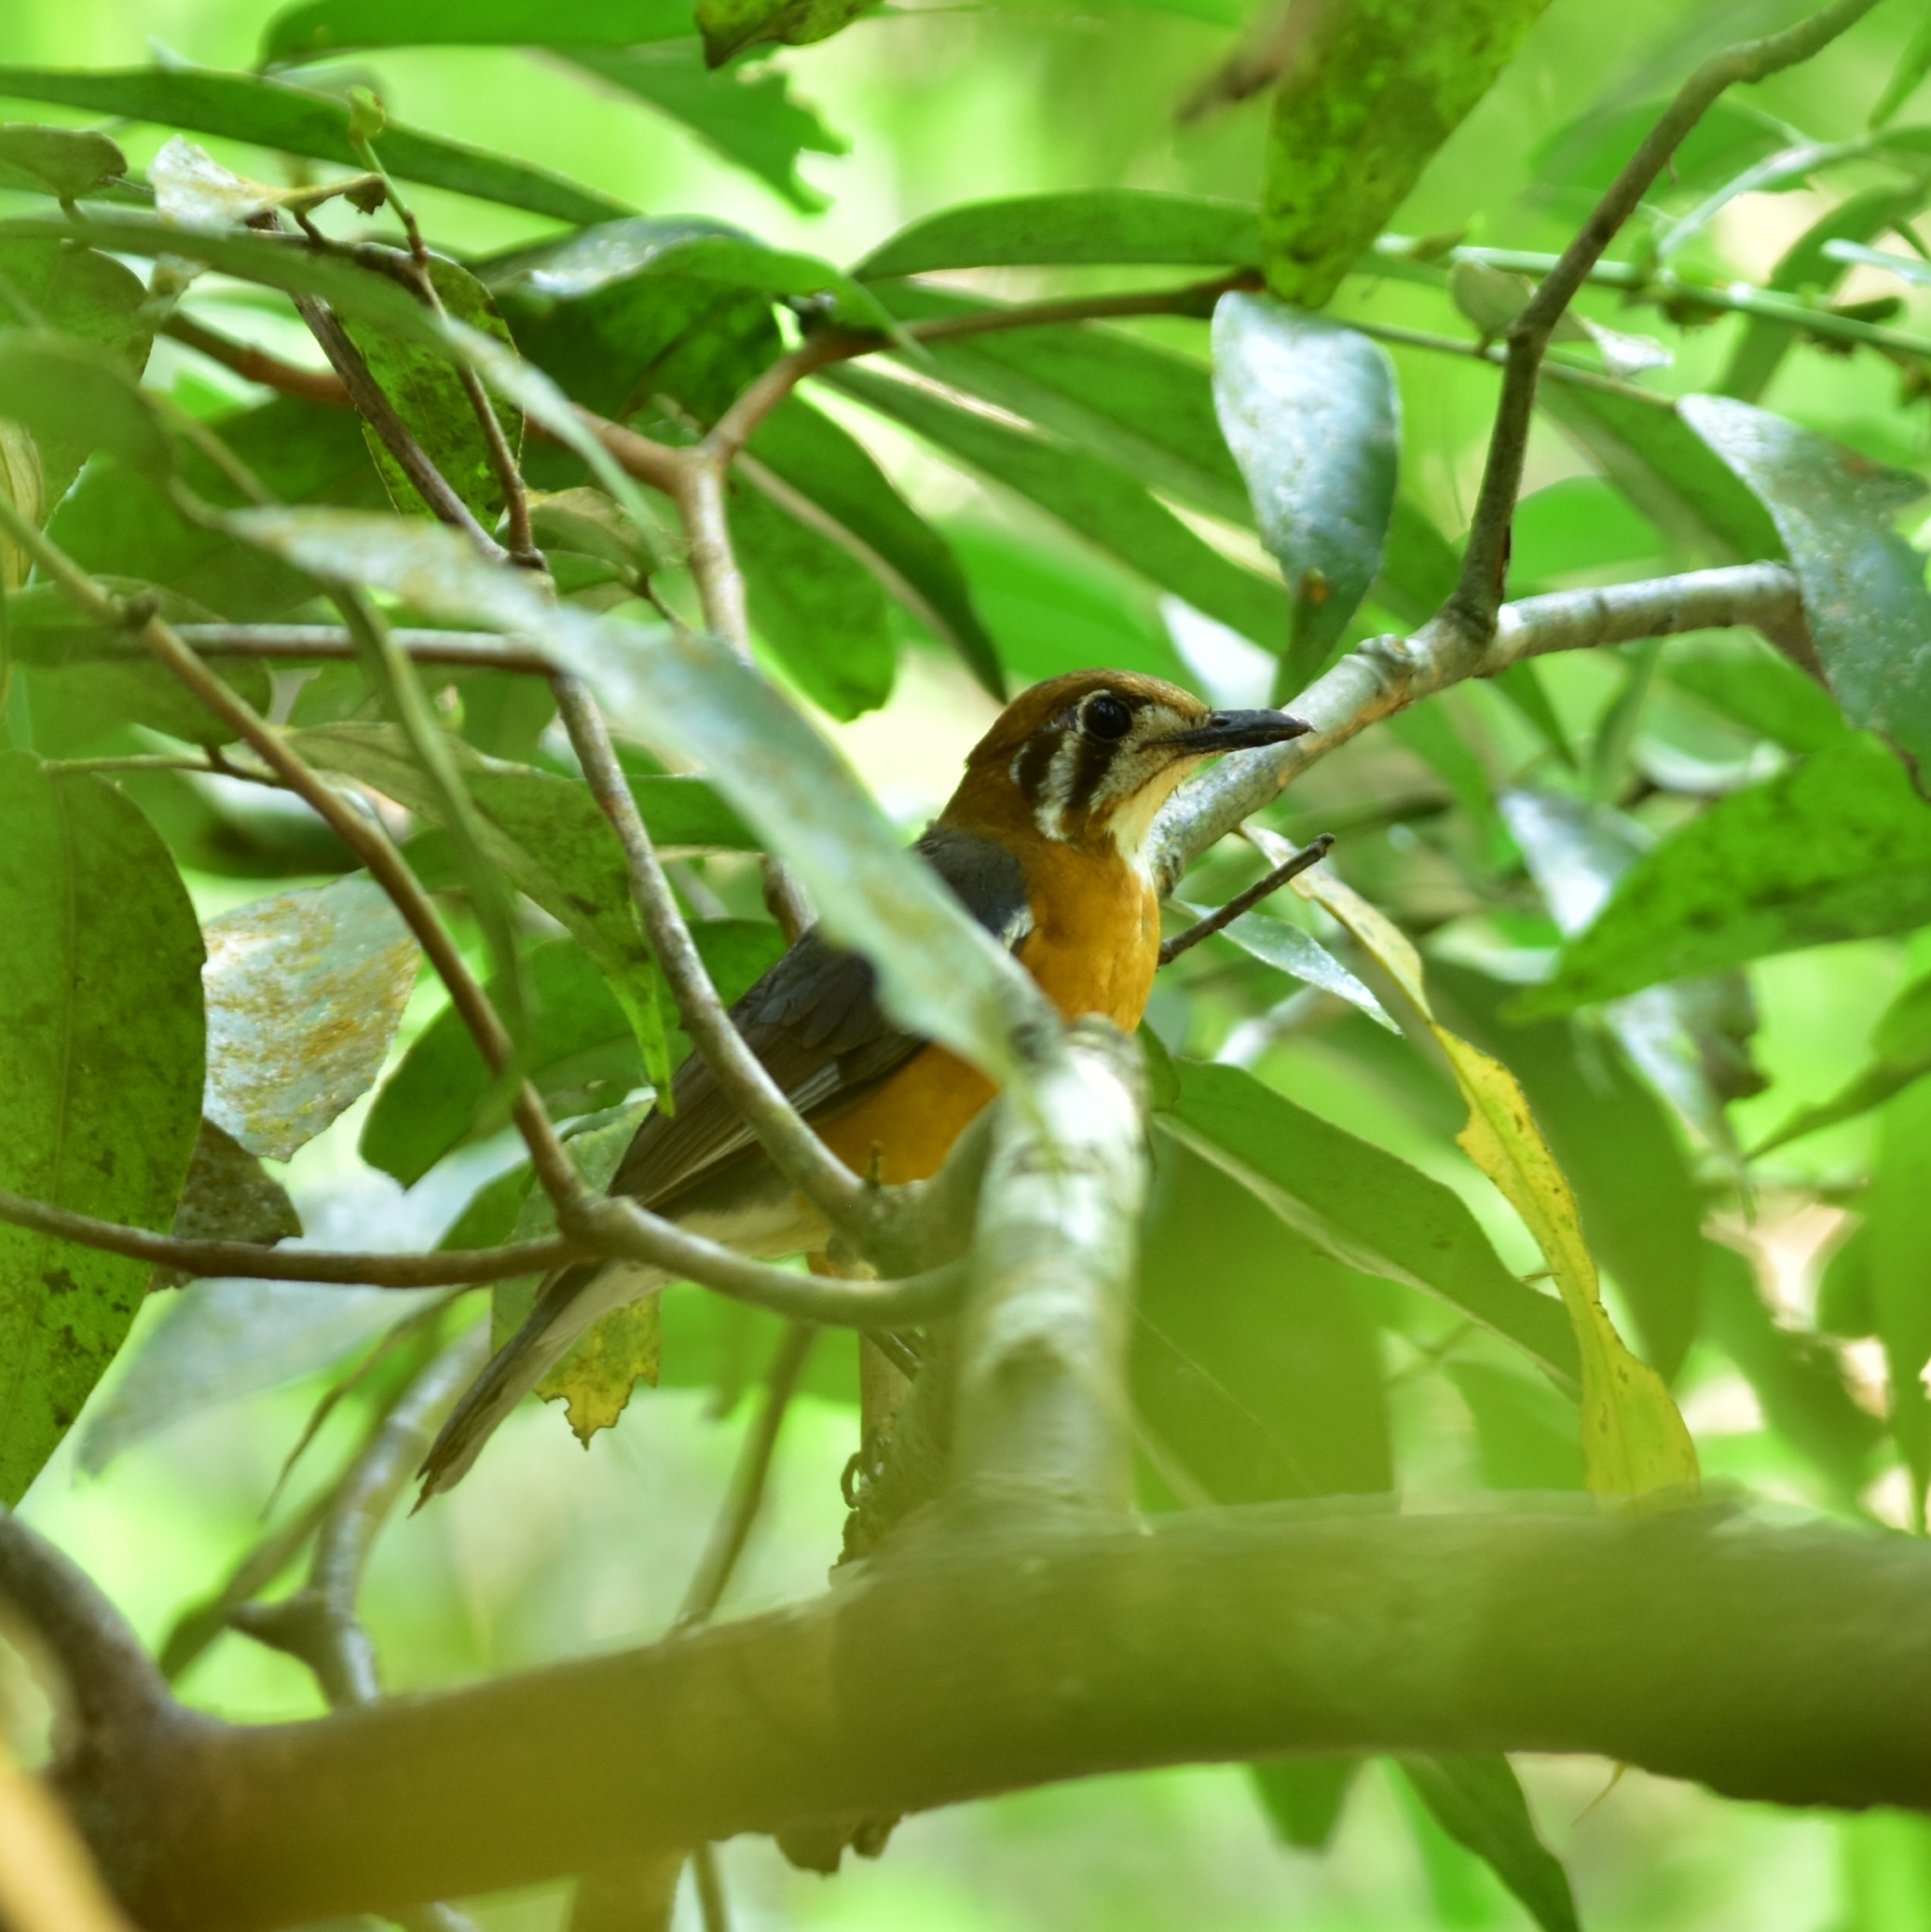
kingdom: Animalia
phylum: Chordata
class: Aves
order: Passeriformes
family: Turdidae
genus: Geokichla
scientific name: Geokichla citrina
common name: Orange-headed thrush
